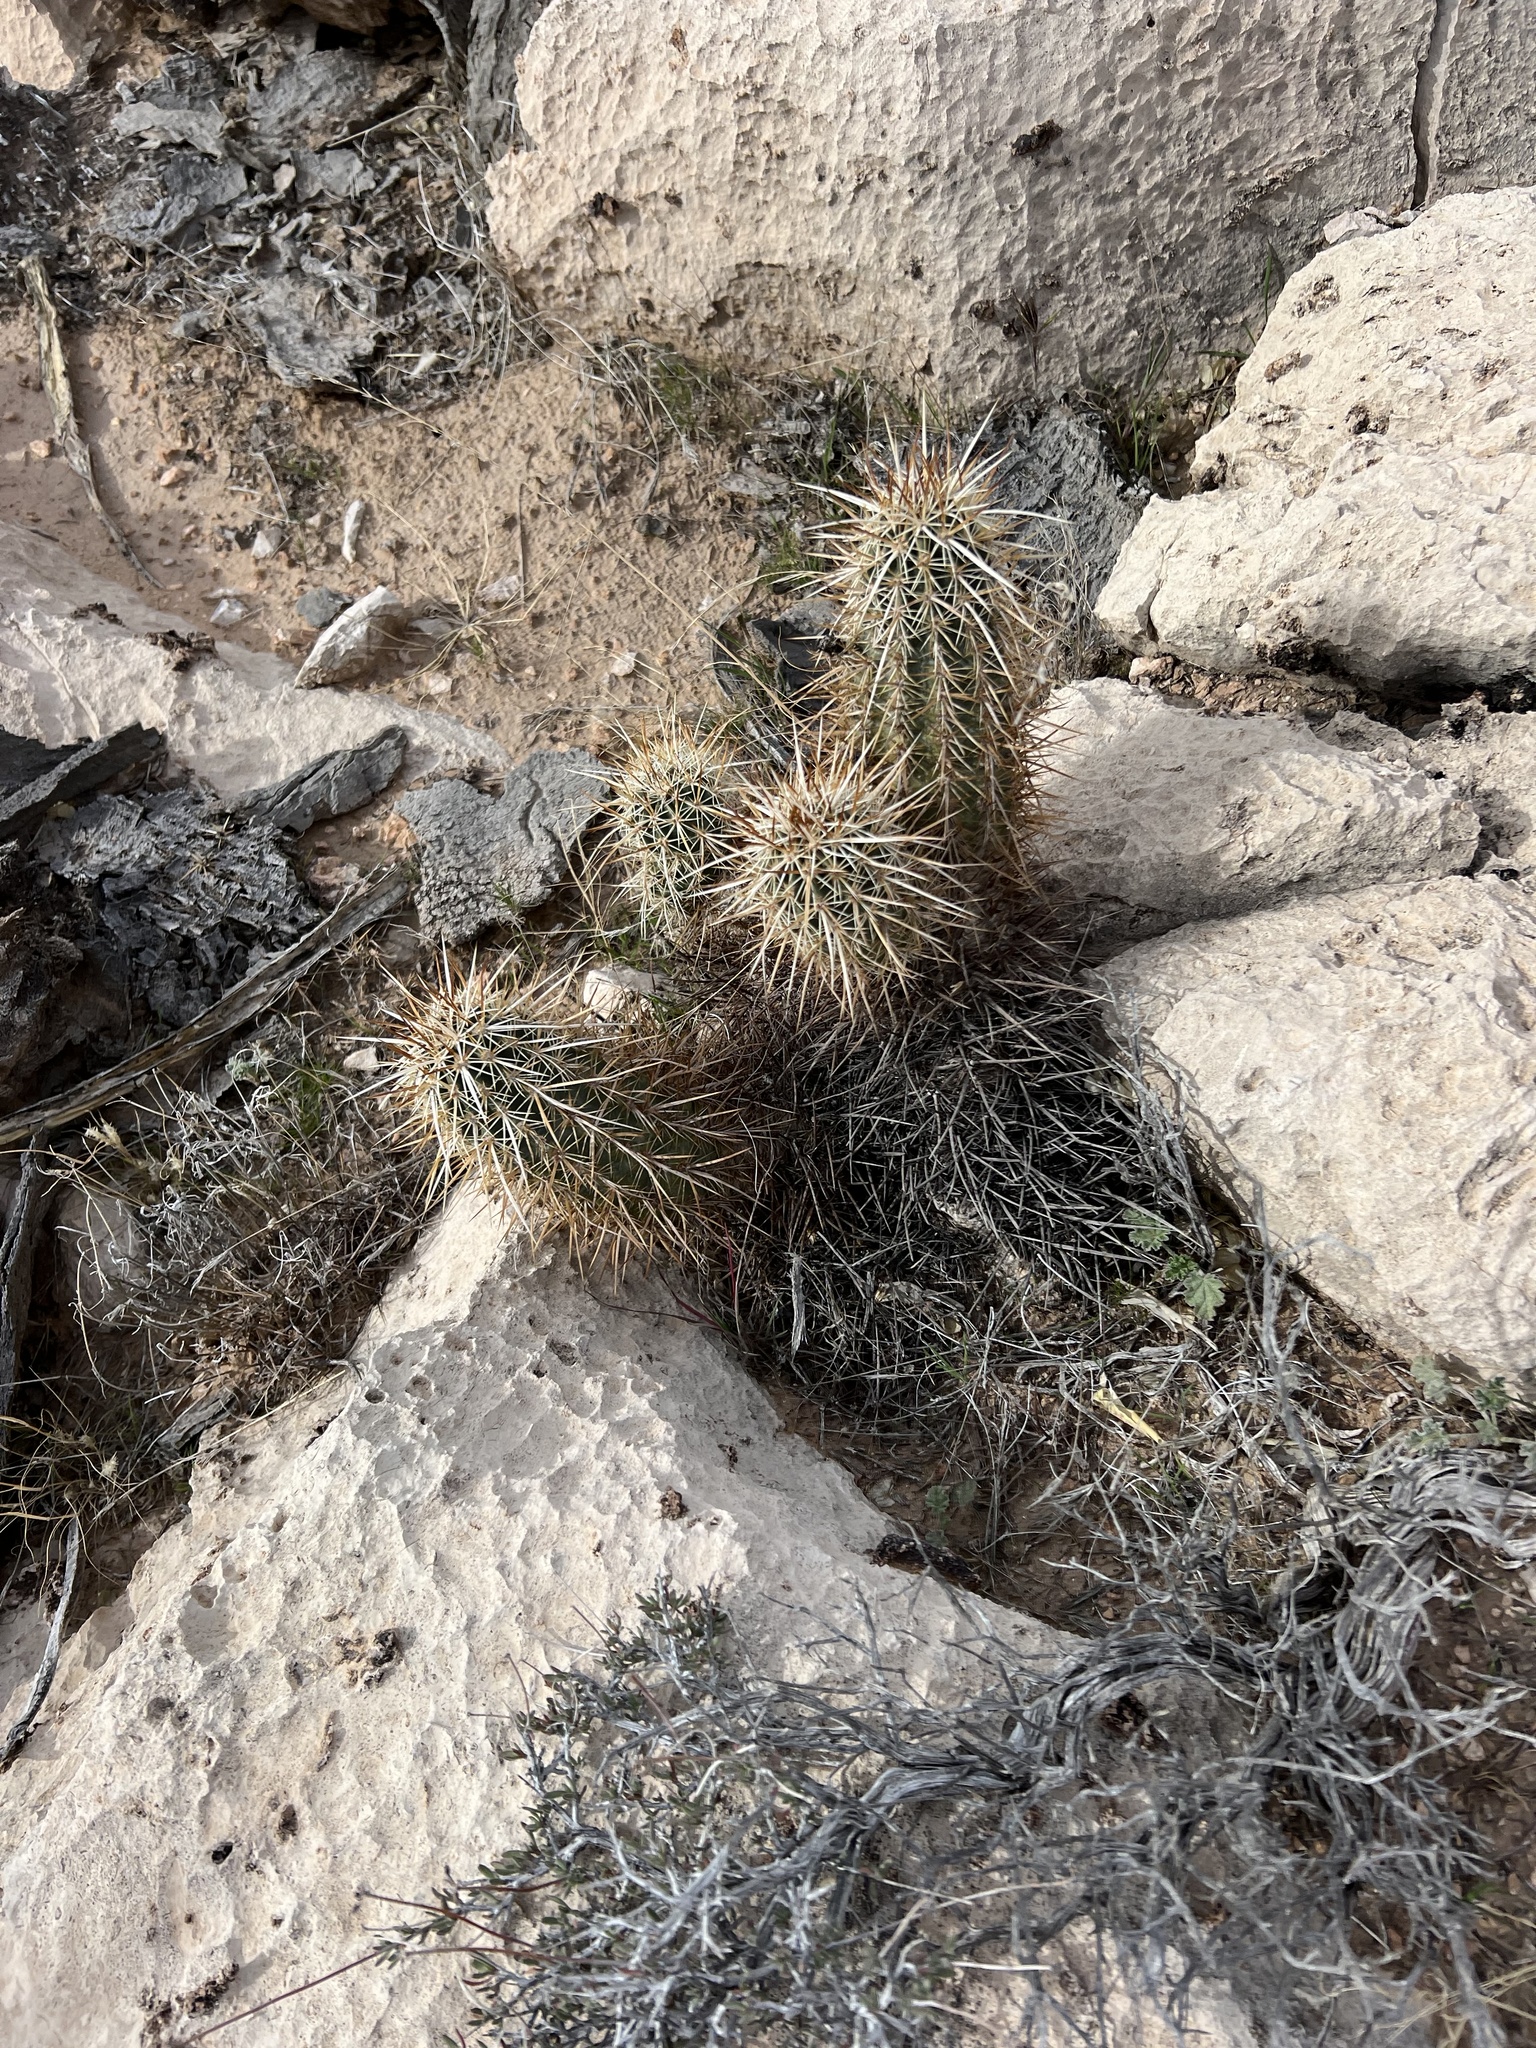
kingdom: Plantae
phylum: Tracheophyta
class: Magnoliopsida
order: Caryophyllales
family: Cactaceae
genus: Echinocereus
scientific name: Echinocereus engelmannii
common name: Engelmann's hedgehog cactus
